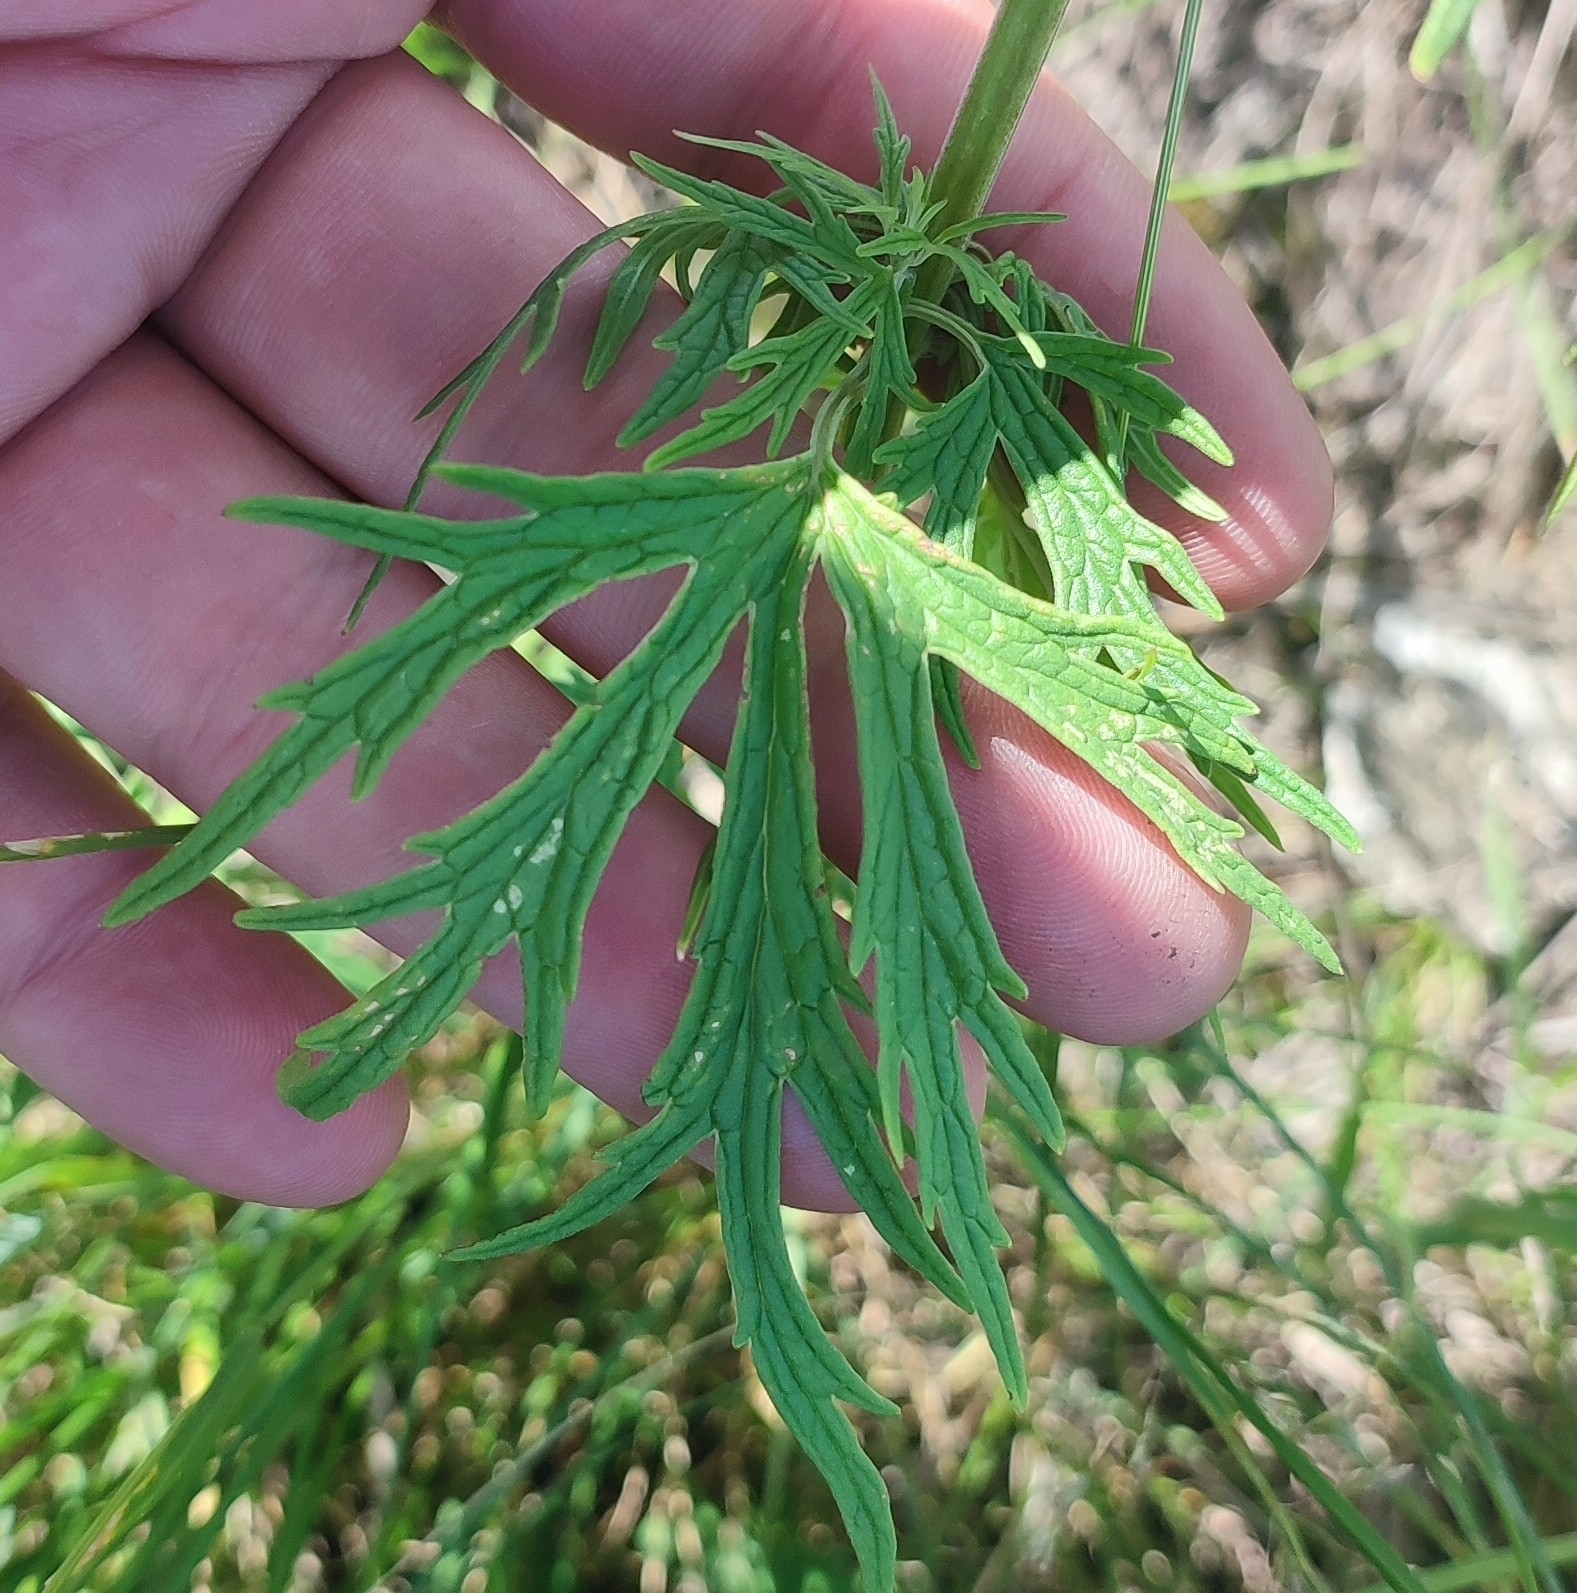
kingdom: Plantae
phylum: Tracheophyta
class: Magnoliopsida
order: Lamiales
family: Lamiaceae
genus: Leonurus
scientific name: Leonurus glaucescens
